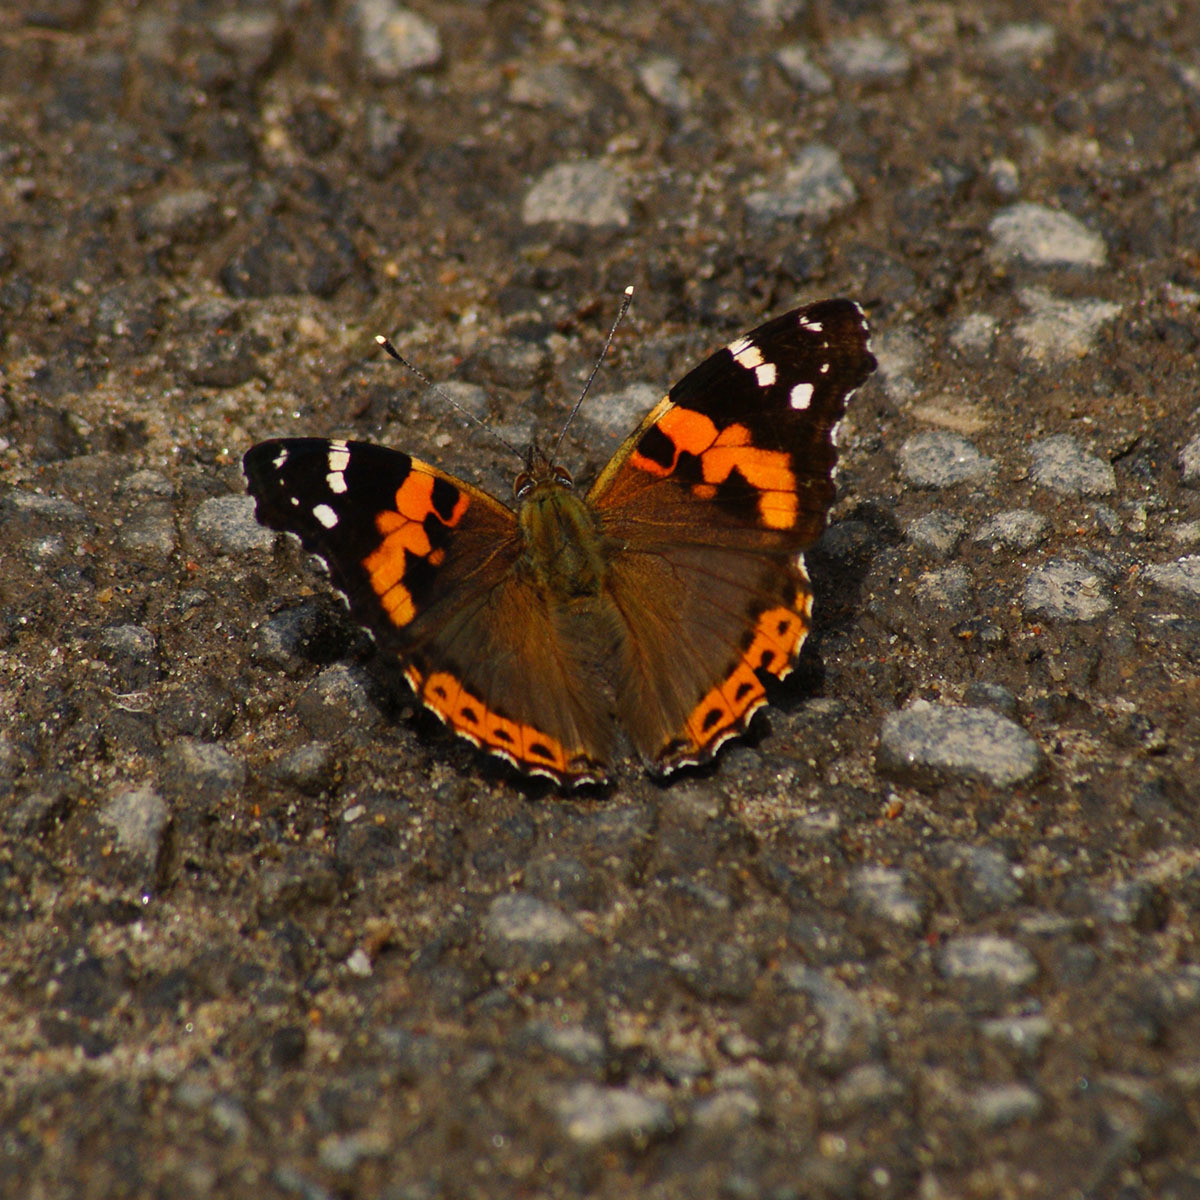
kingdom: Animalia
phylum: Arthropoda
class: Insecta
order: Lepidoptera
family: Nymphalidae
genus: Vanessa
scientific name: Vanessa indica
